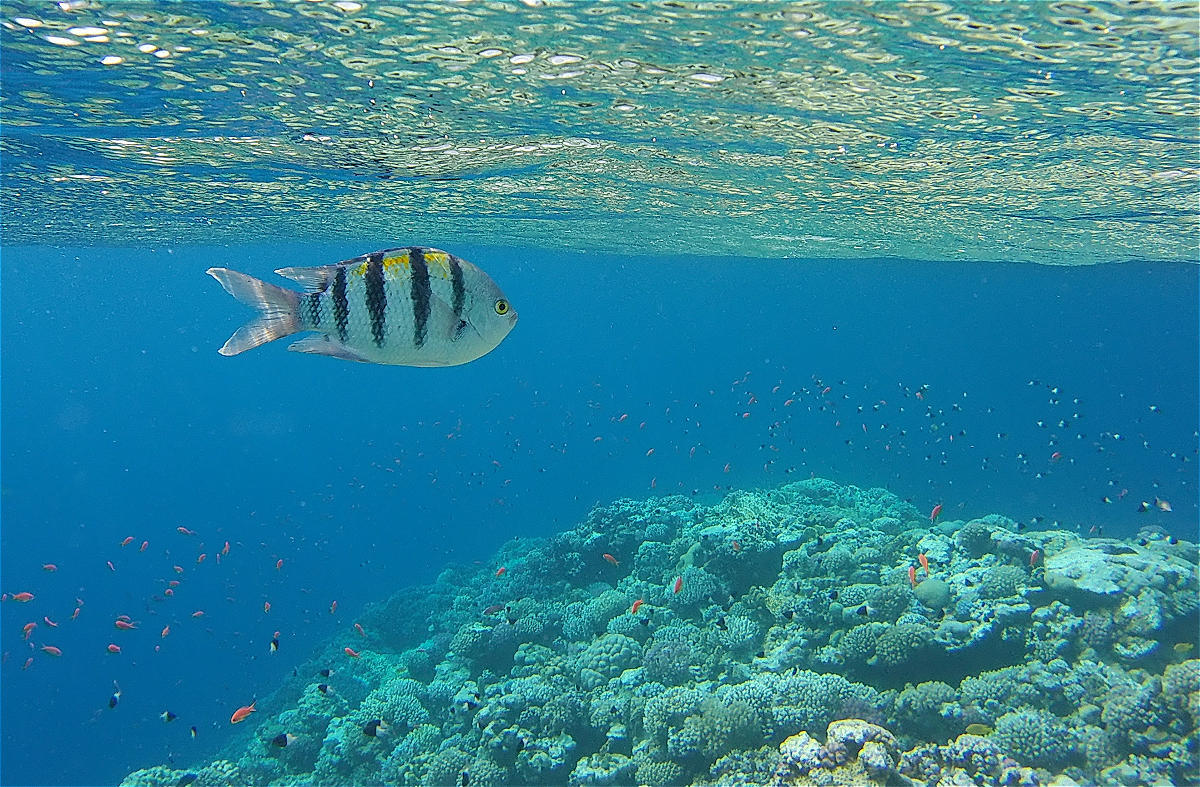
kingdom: Animalia
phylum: Chordata
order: Perciformes
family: Pomacentridae
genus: Abudefduf
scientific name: Abudefduf vaigiensis
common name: Indo-pacific sergeant
